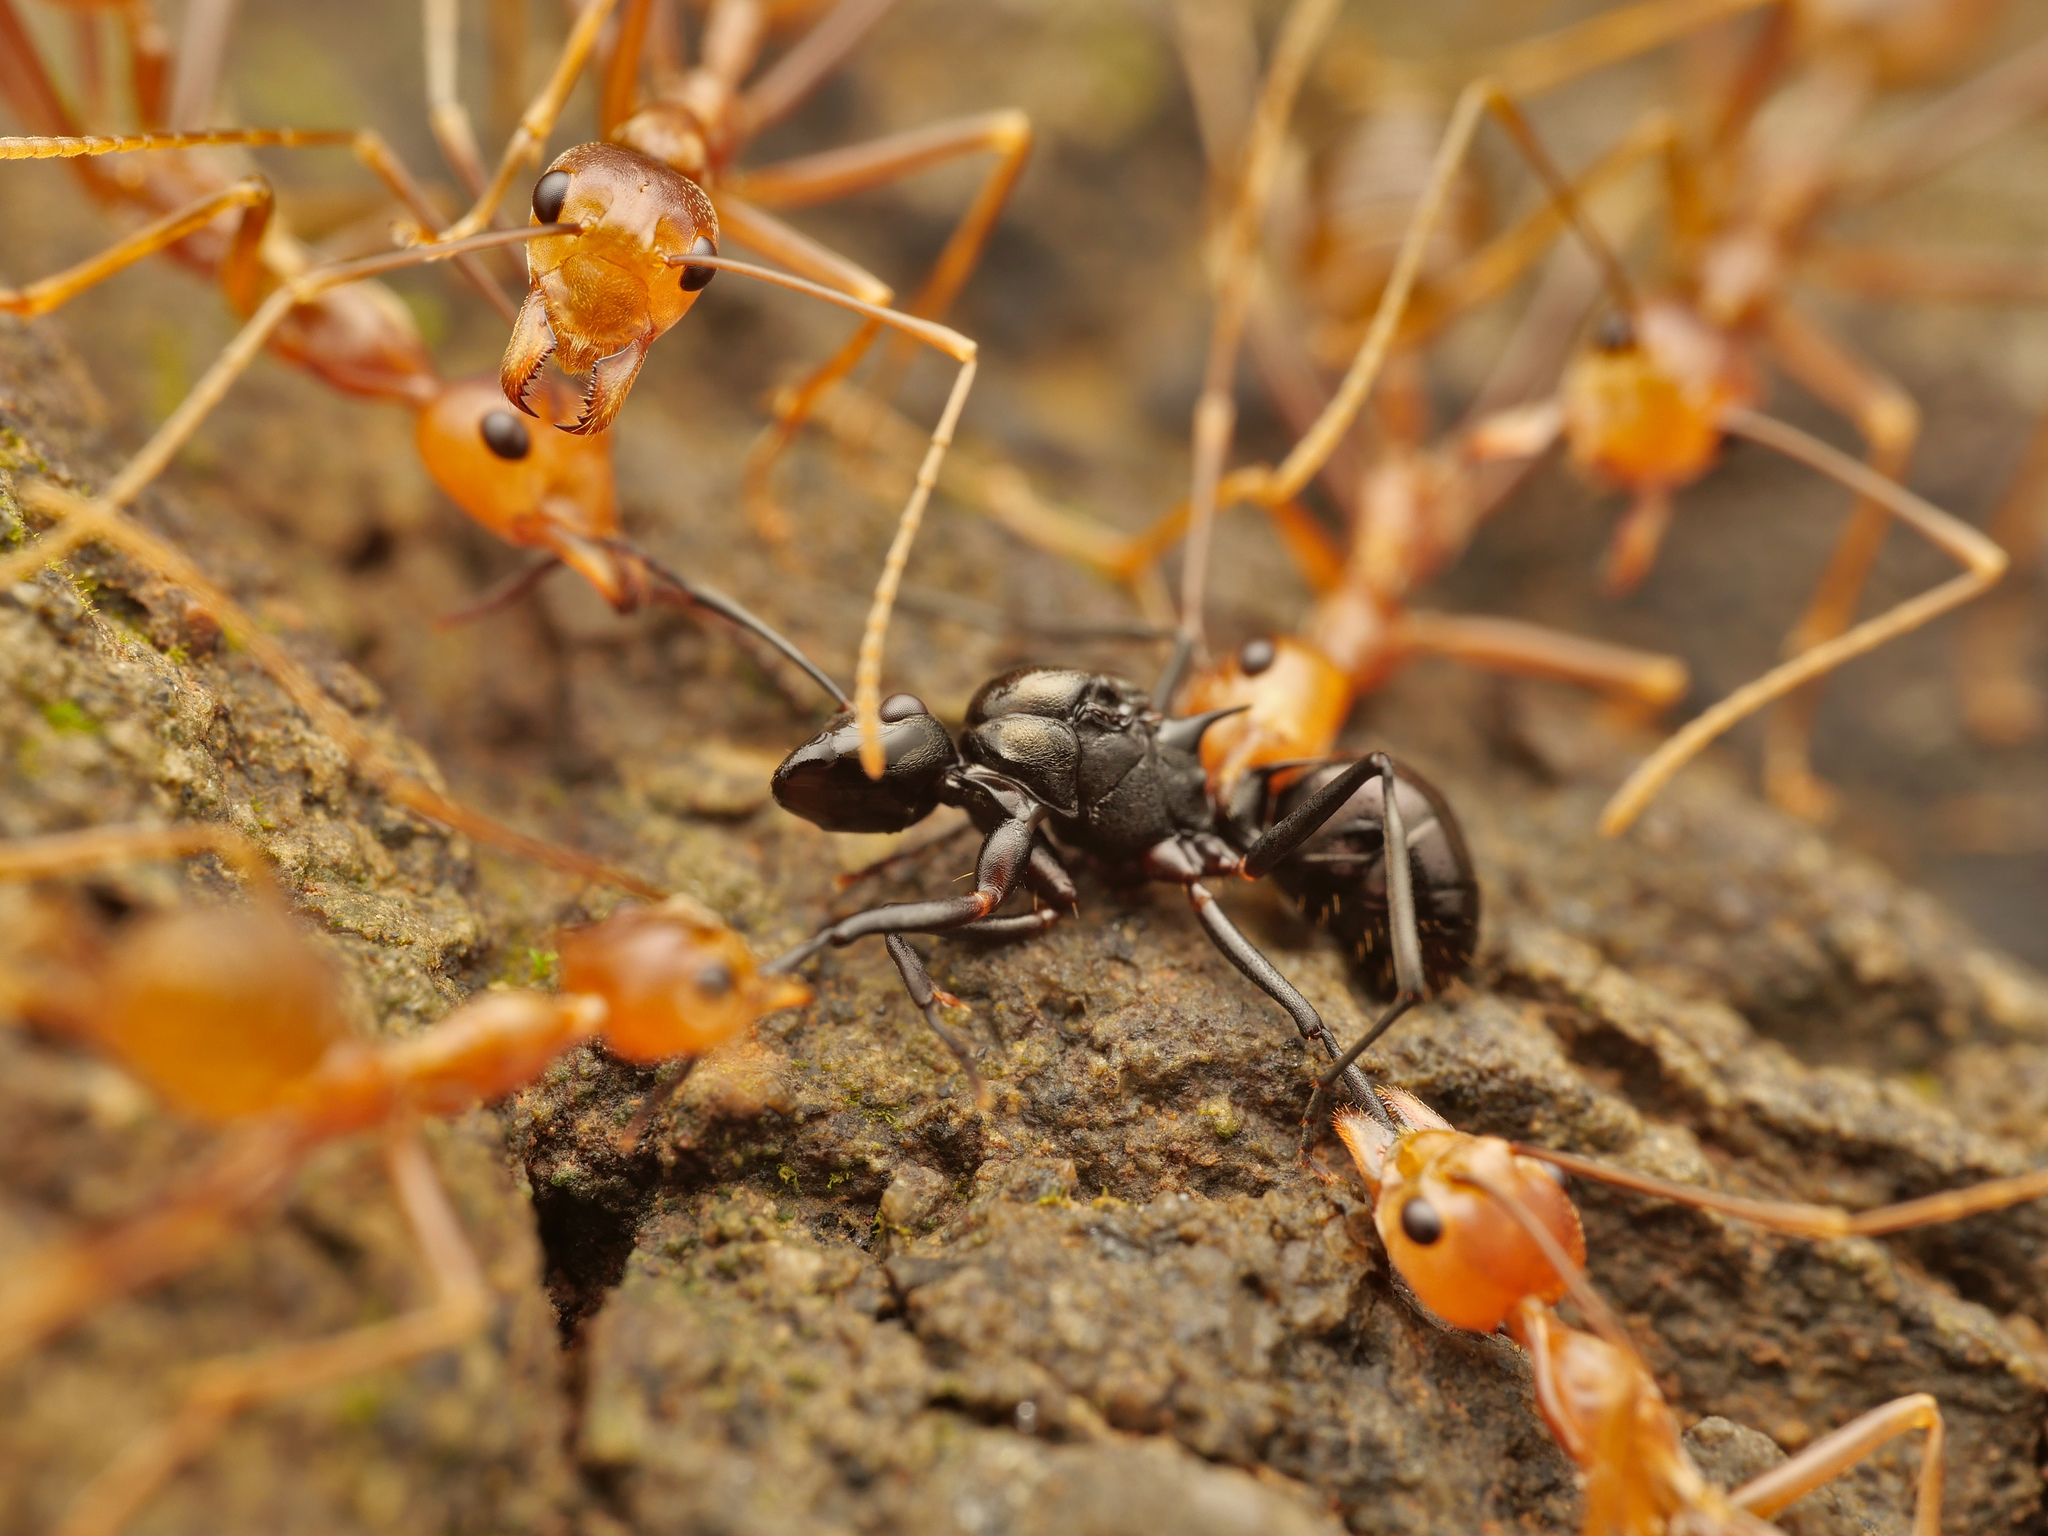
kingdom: Animalia
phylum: Arthropoda
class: Insecta
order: Hymenoptera
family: Formicidae
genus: Oecophylla
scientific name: Oecophylla smaragdina
